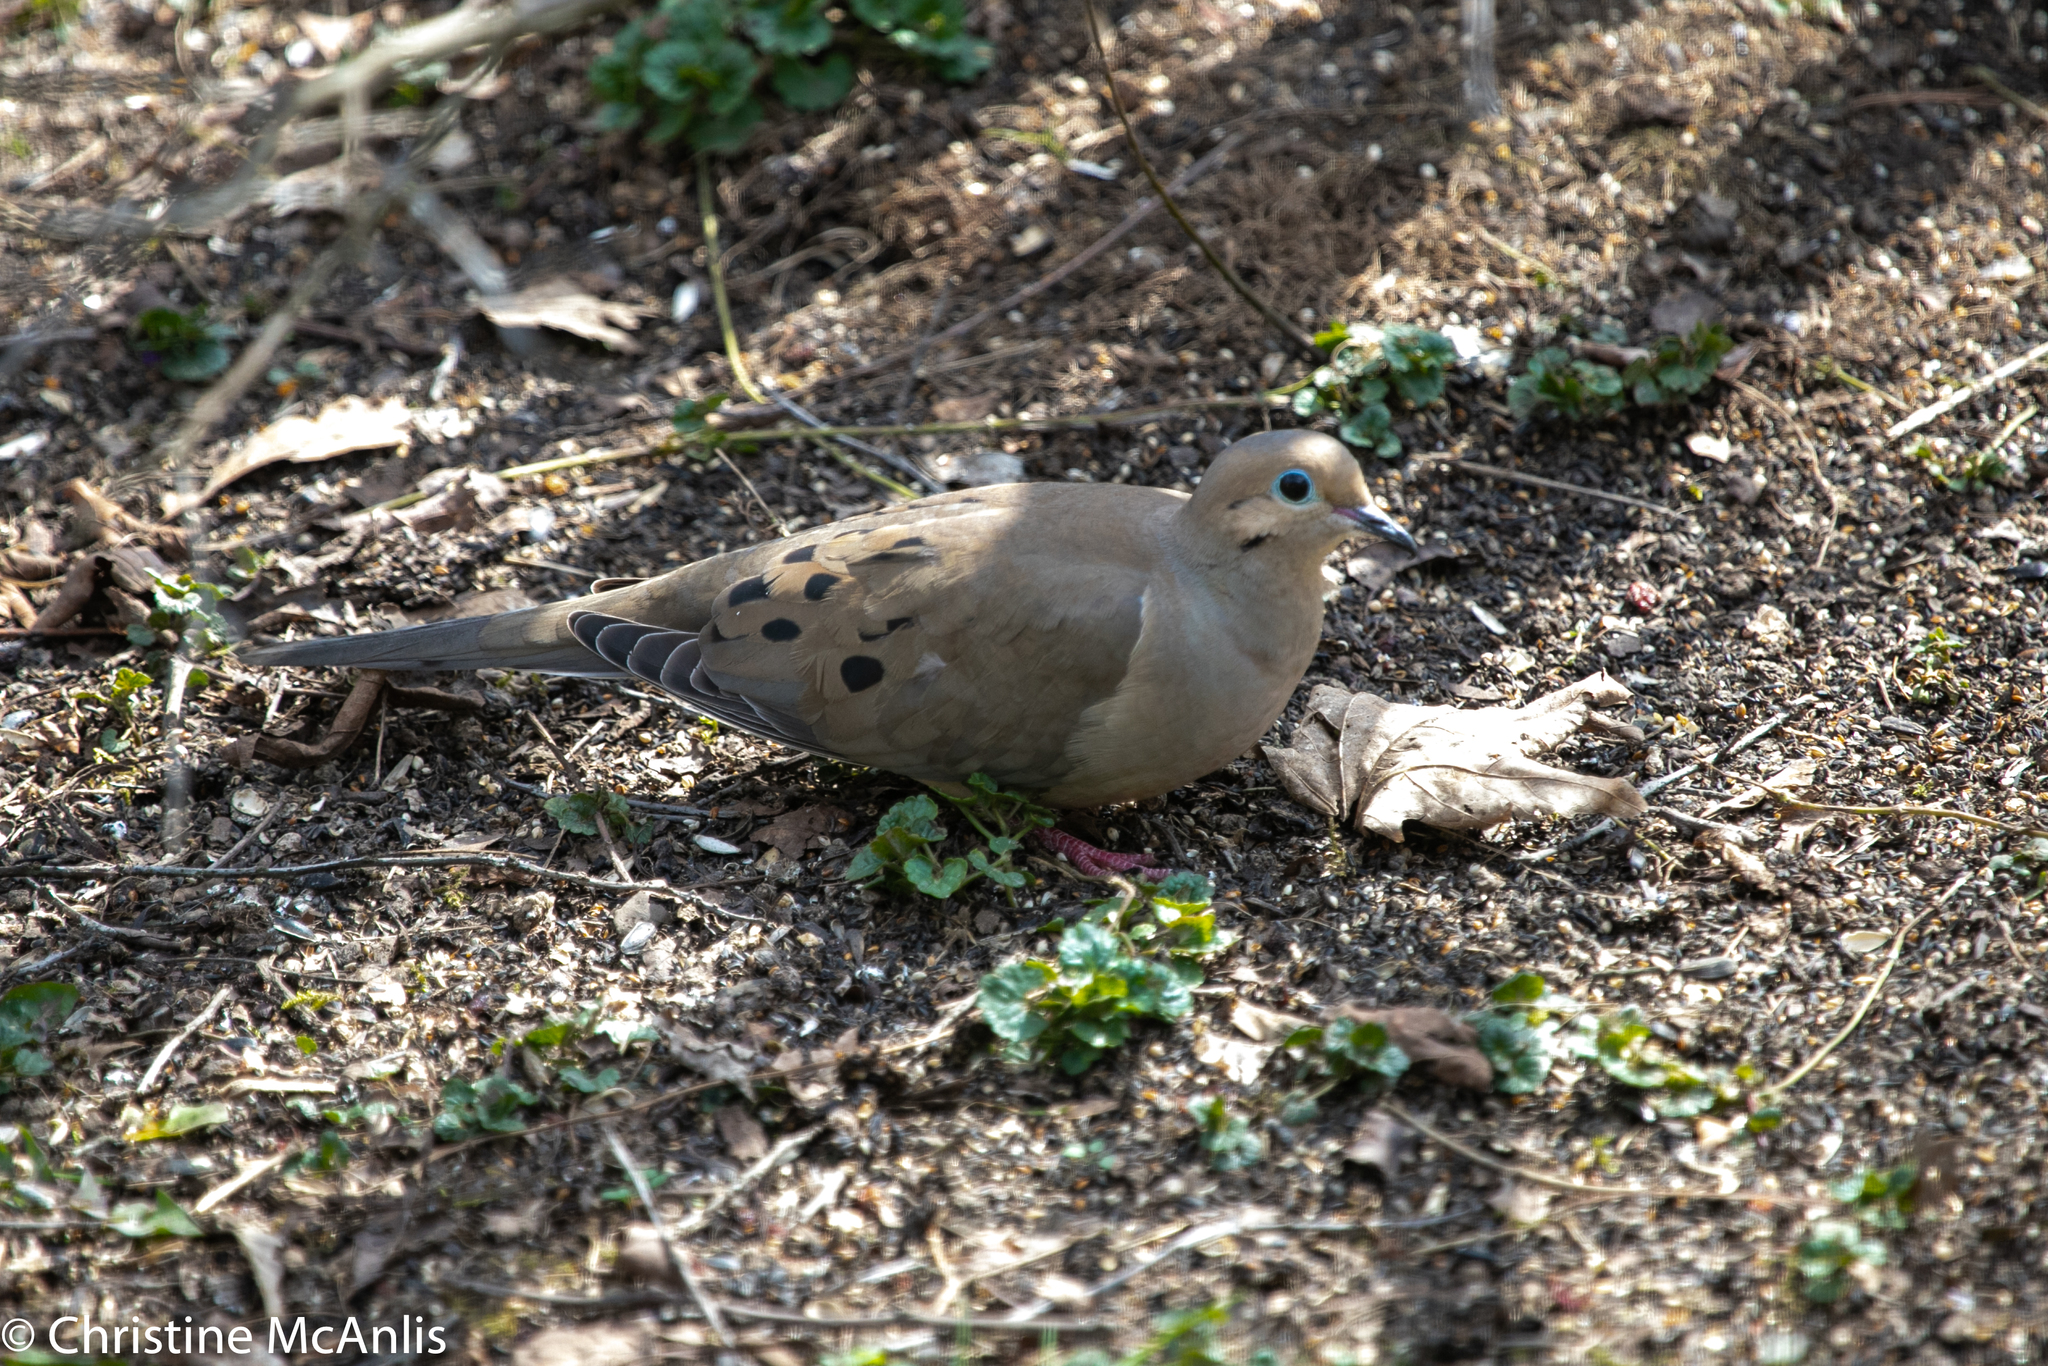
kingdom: Animalia
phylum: Chordata
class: Aves
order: Columbiformes
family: Columbidae
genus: Zenaida
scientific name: Zenaida macroura
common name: Mourning dove
